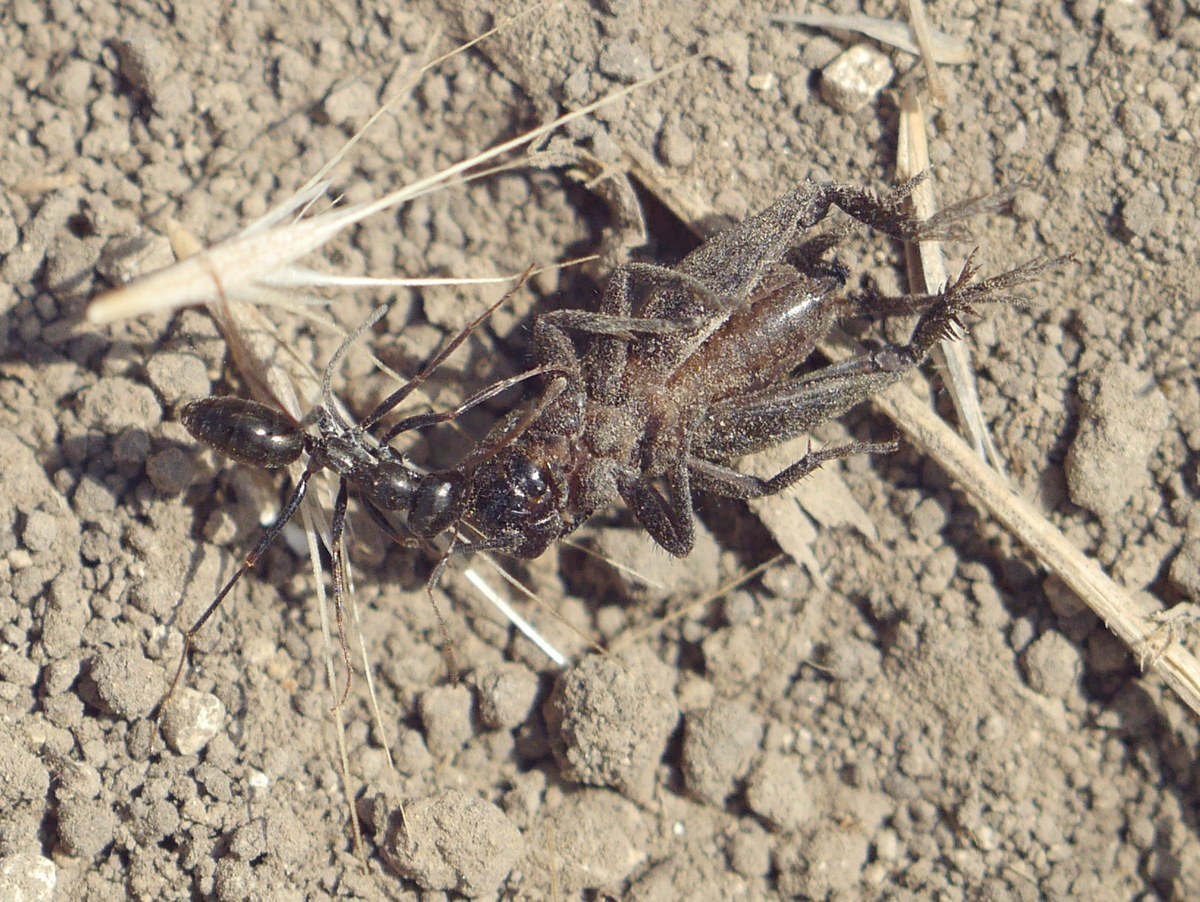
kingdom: Animalia
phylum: Arthropoda
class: Insecta
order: Hymenoptera
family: Formicidae
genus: Cataglyphis
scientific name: Cataglyphis aenescens
